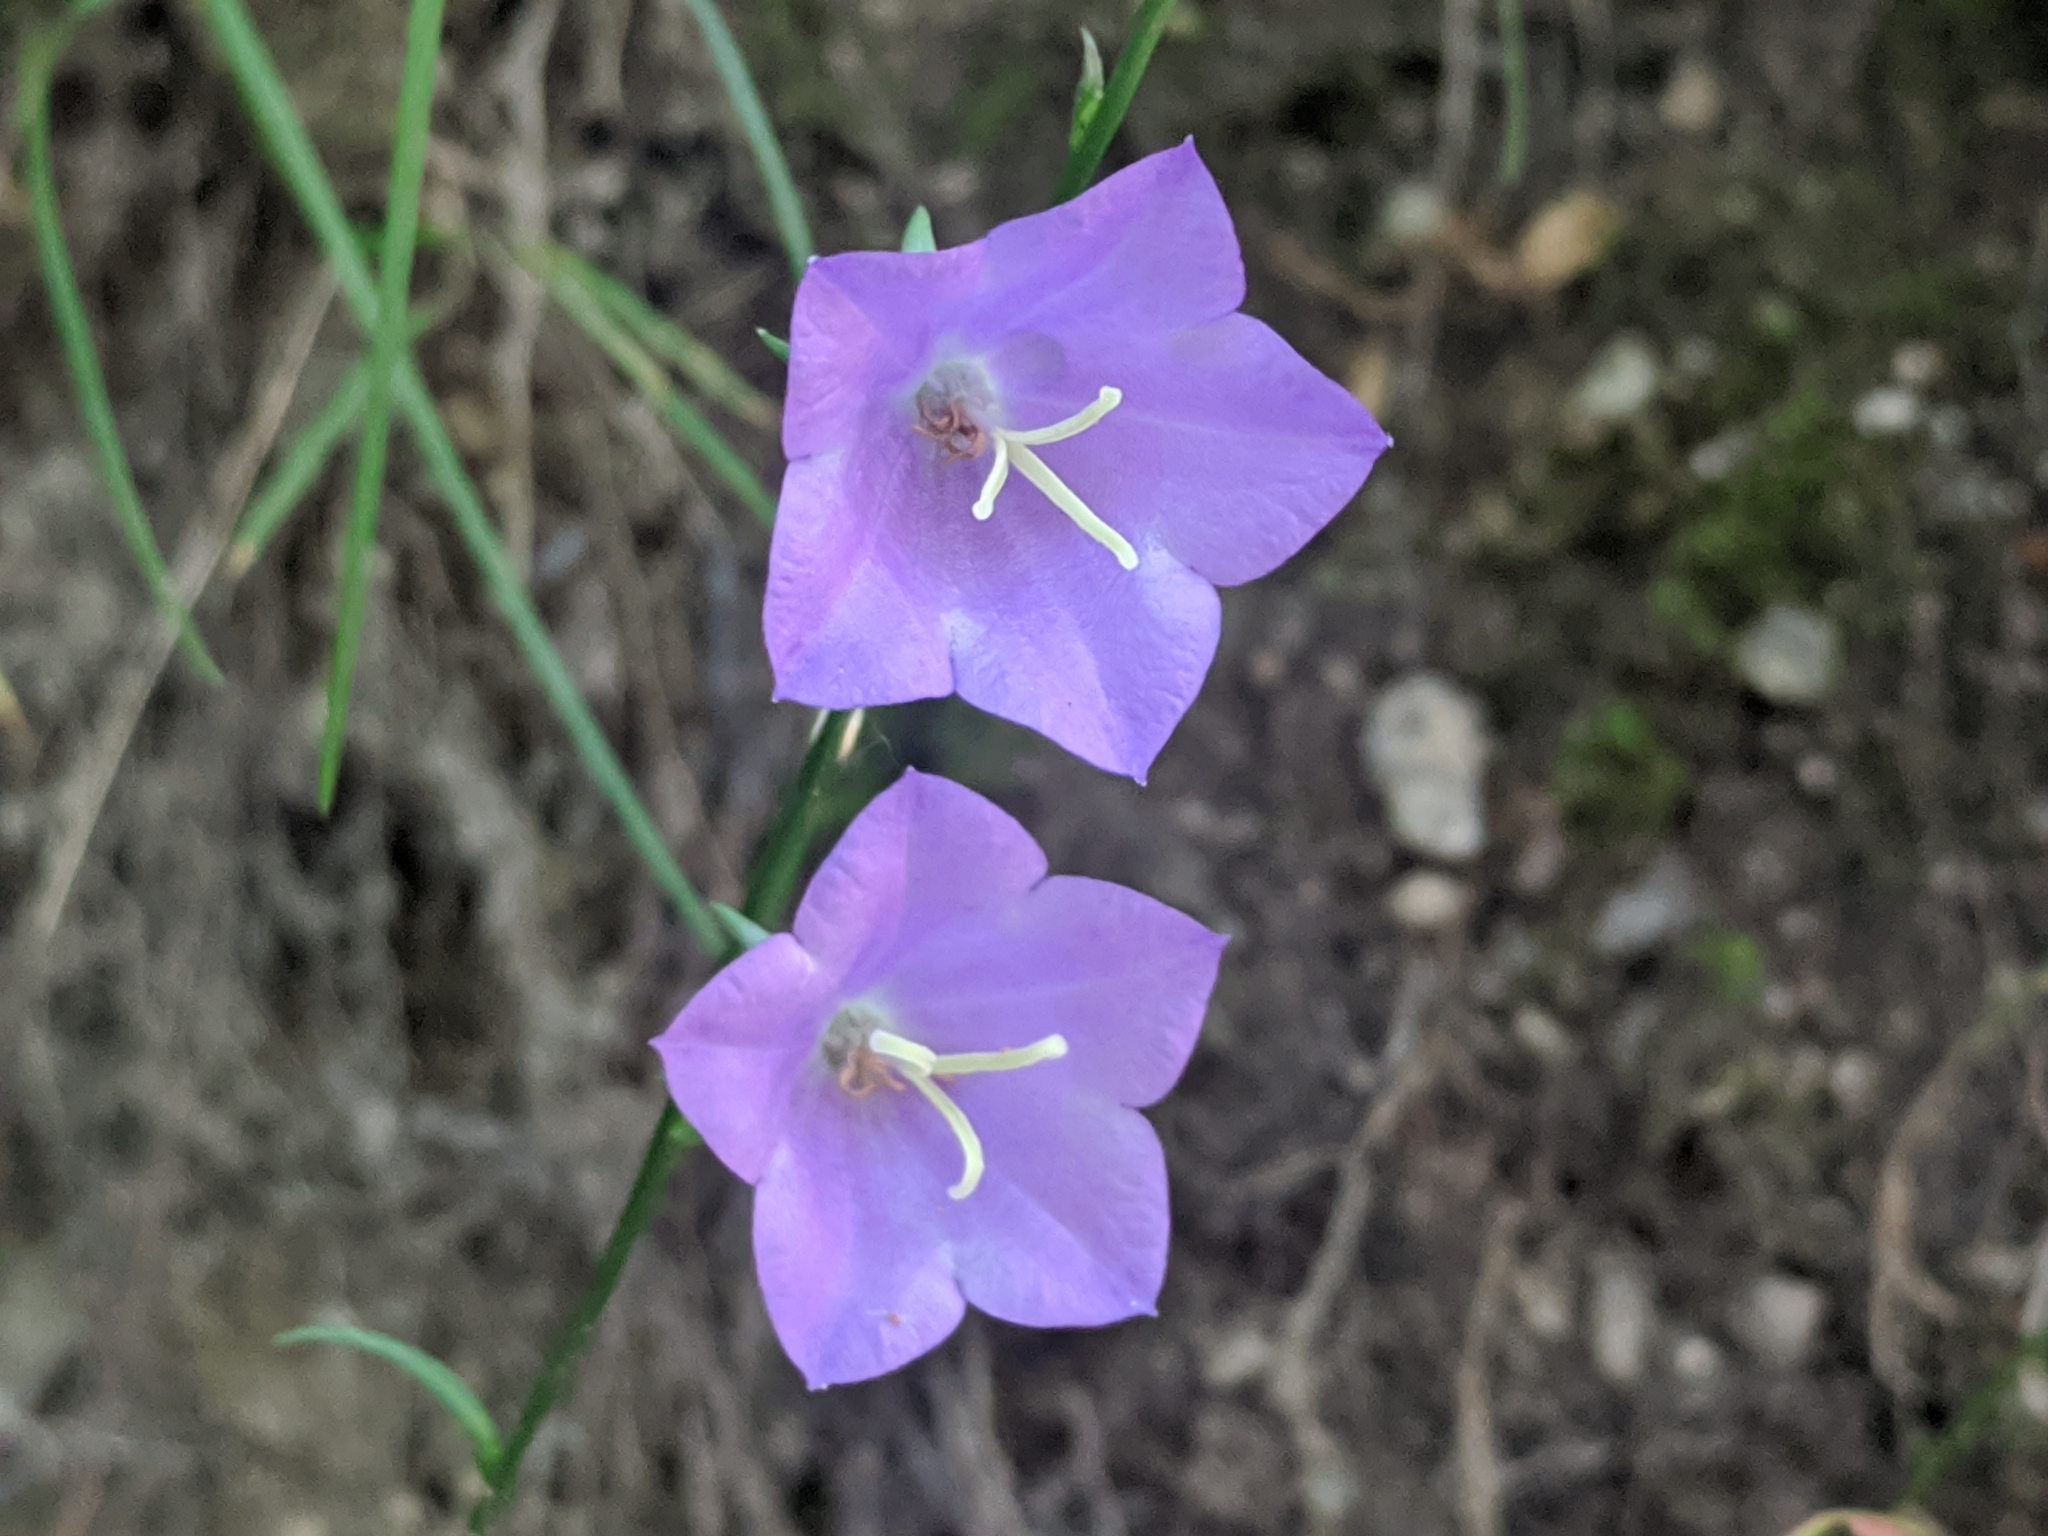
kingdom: Plantae
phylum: Tracheophyta
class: Magnoliopsida
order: Asterales
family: Campanulaceae
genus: Campanula
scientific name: Campanula persicifolia
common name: Peach-leaved bellflower
